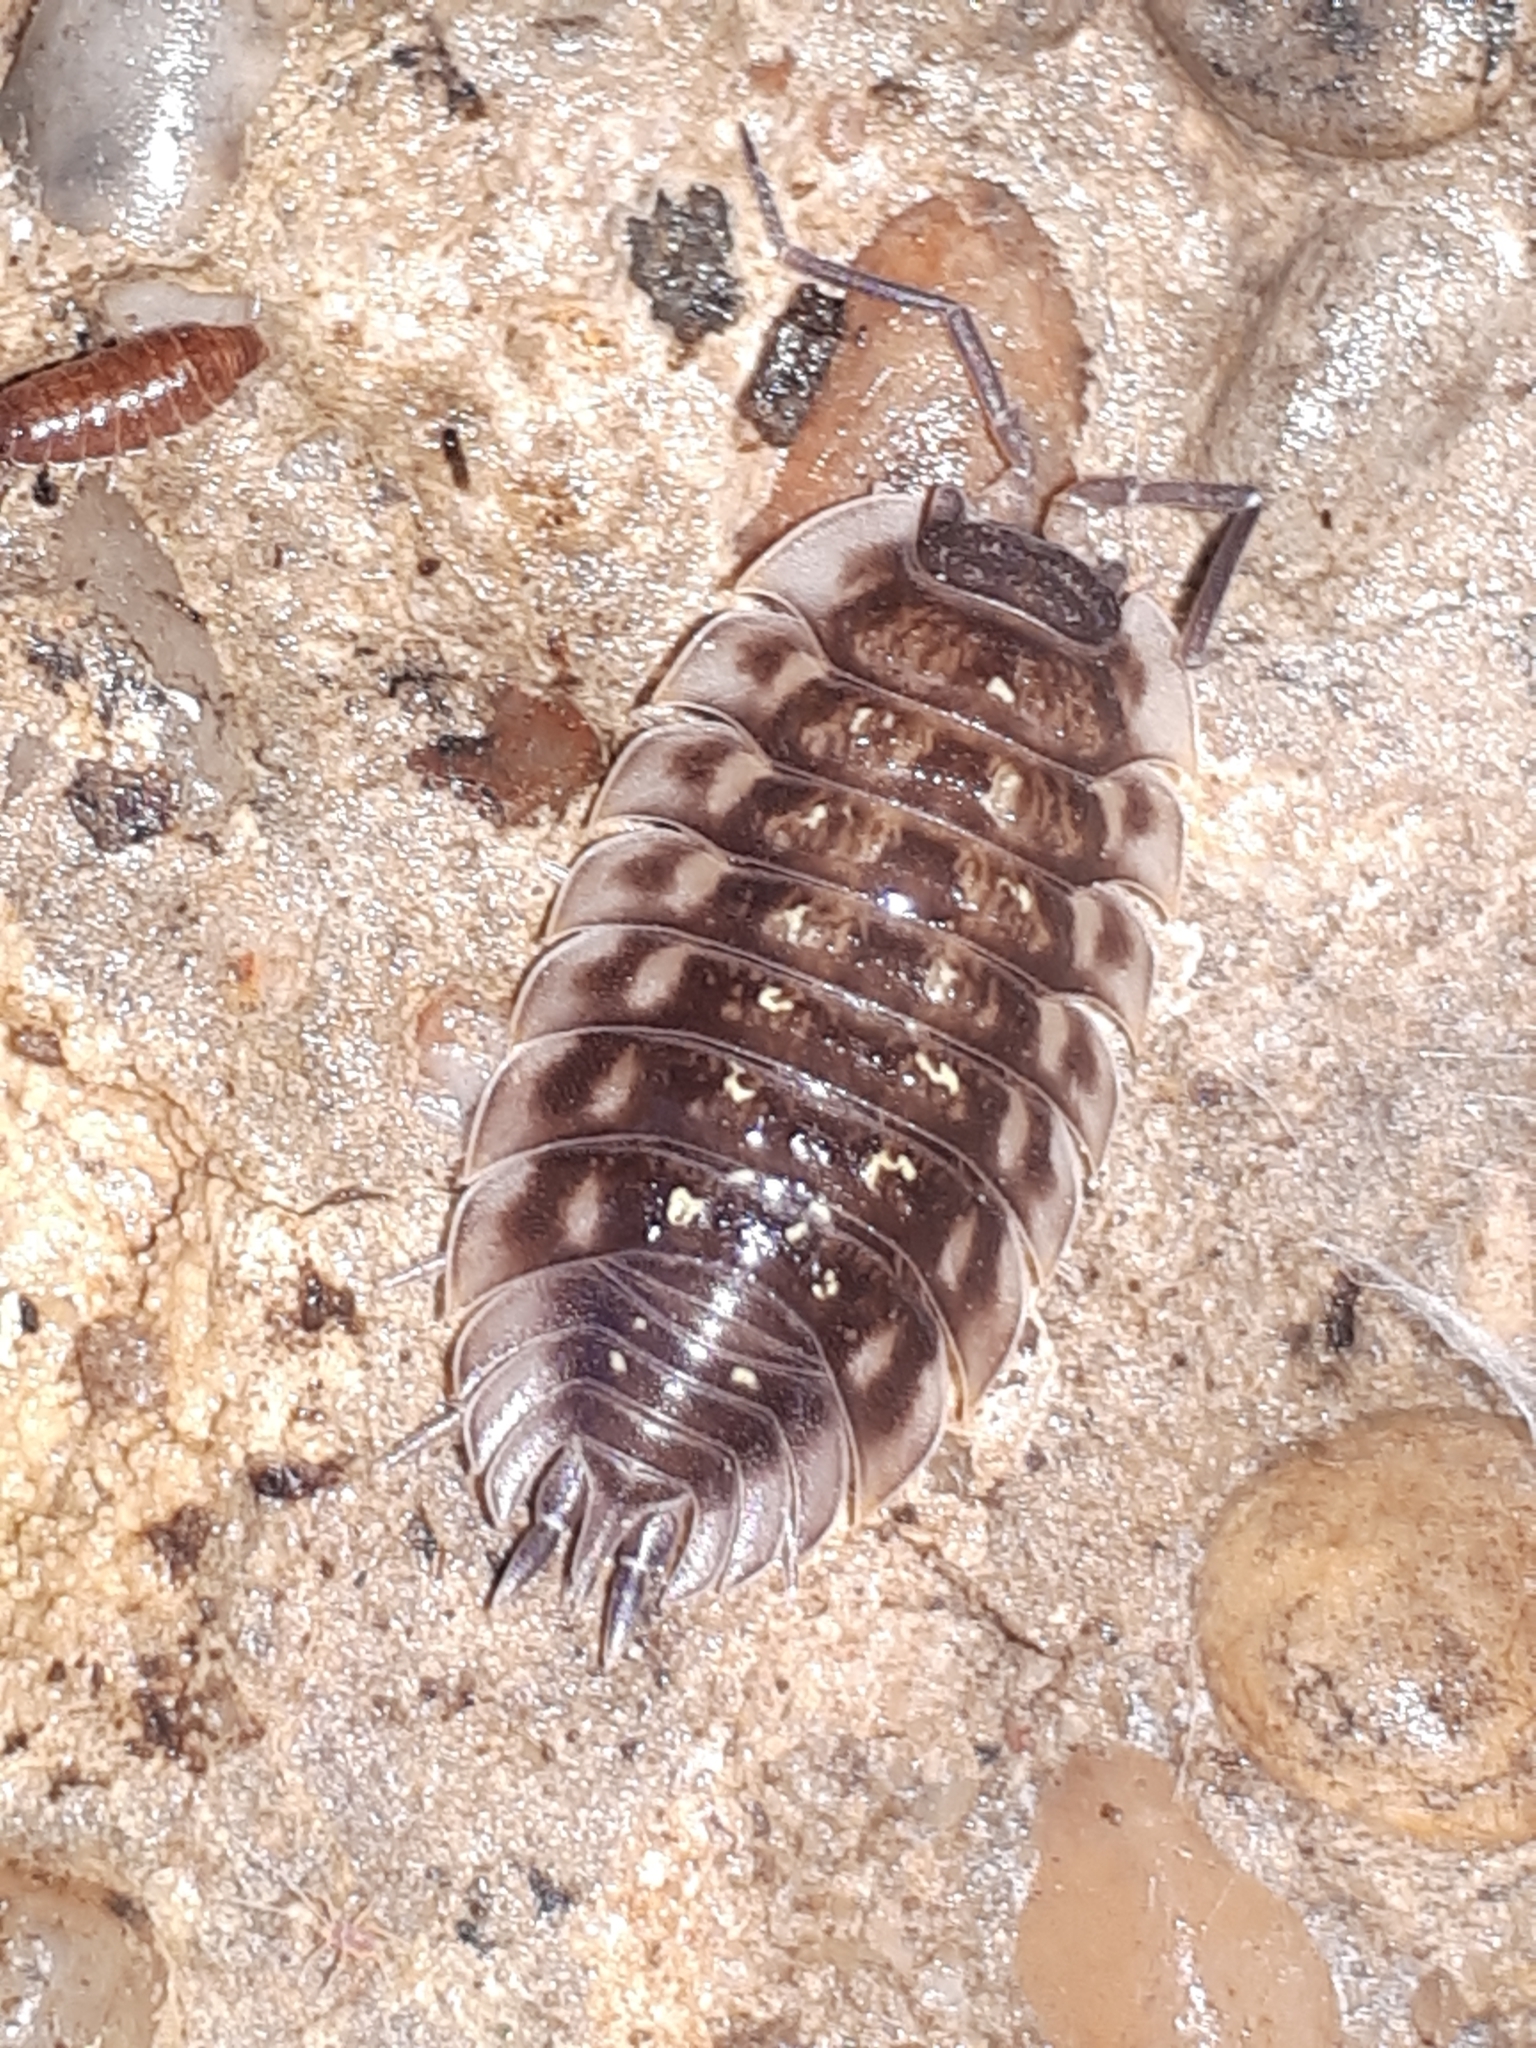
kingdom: Animalia
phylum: Arthropoda
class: Malacostraca
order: Isopoda
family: Oniscidae
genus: Oniscus
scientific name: Oniscus asellus
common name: Common shiny woodlouse
